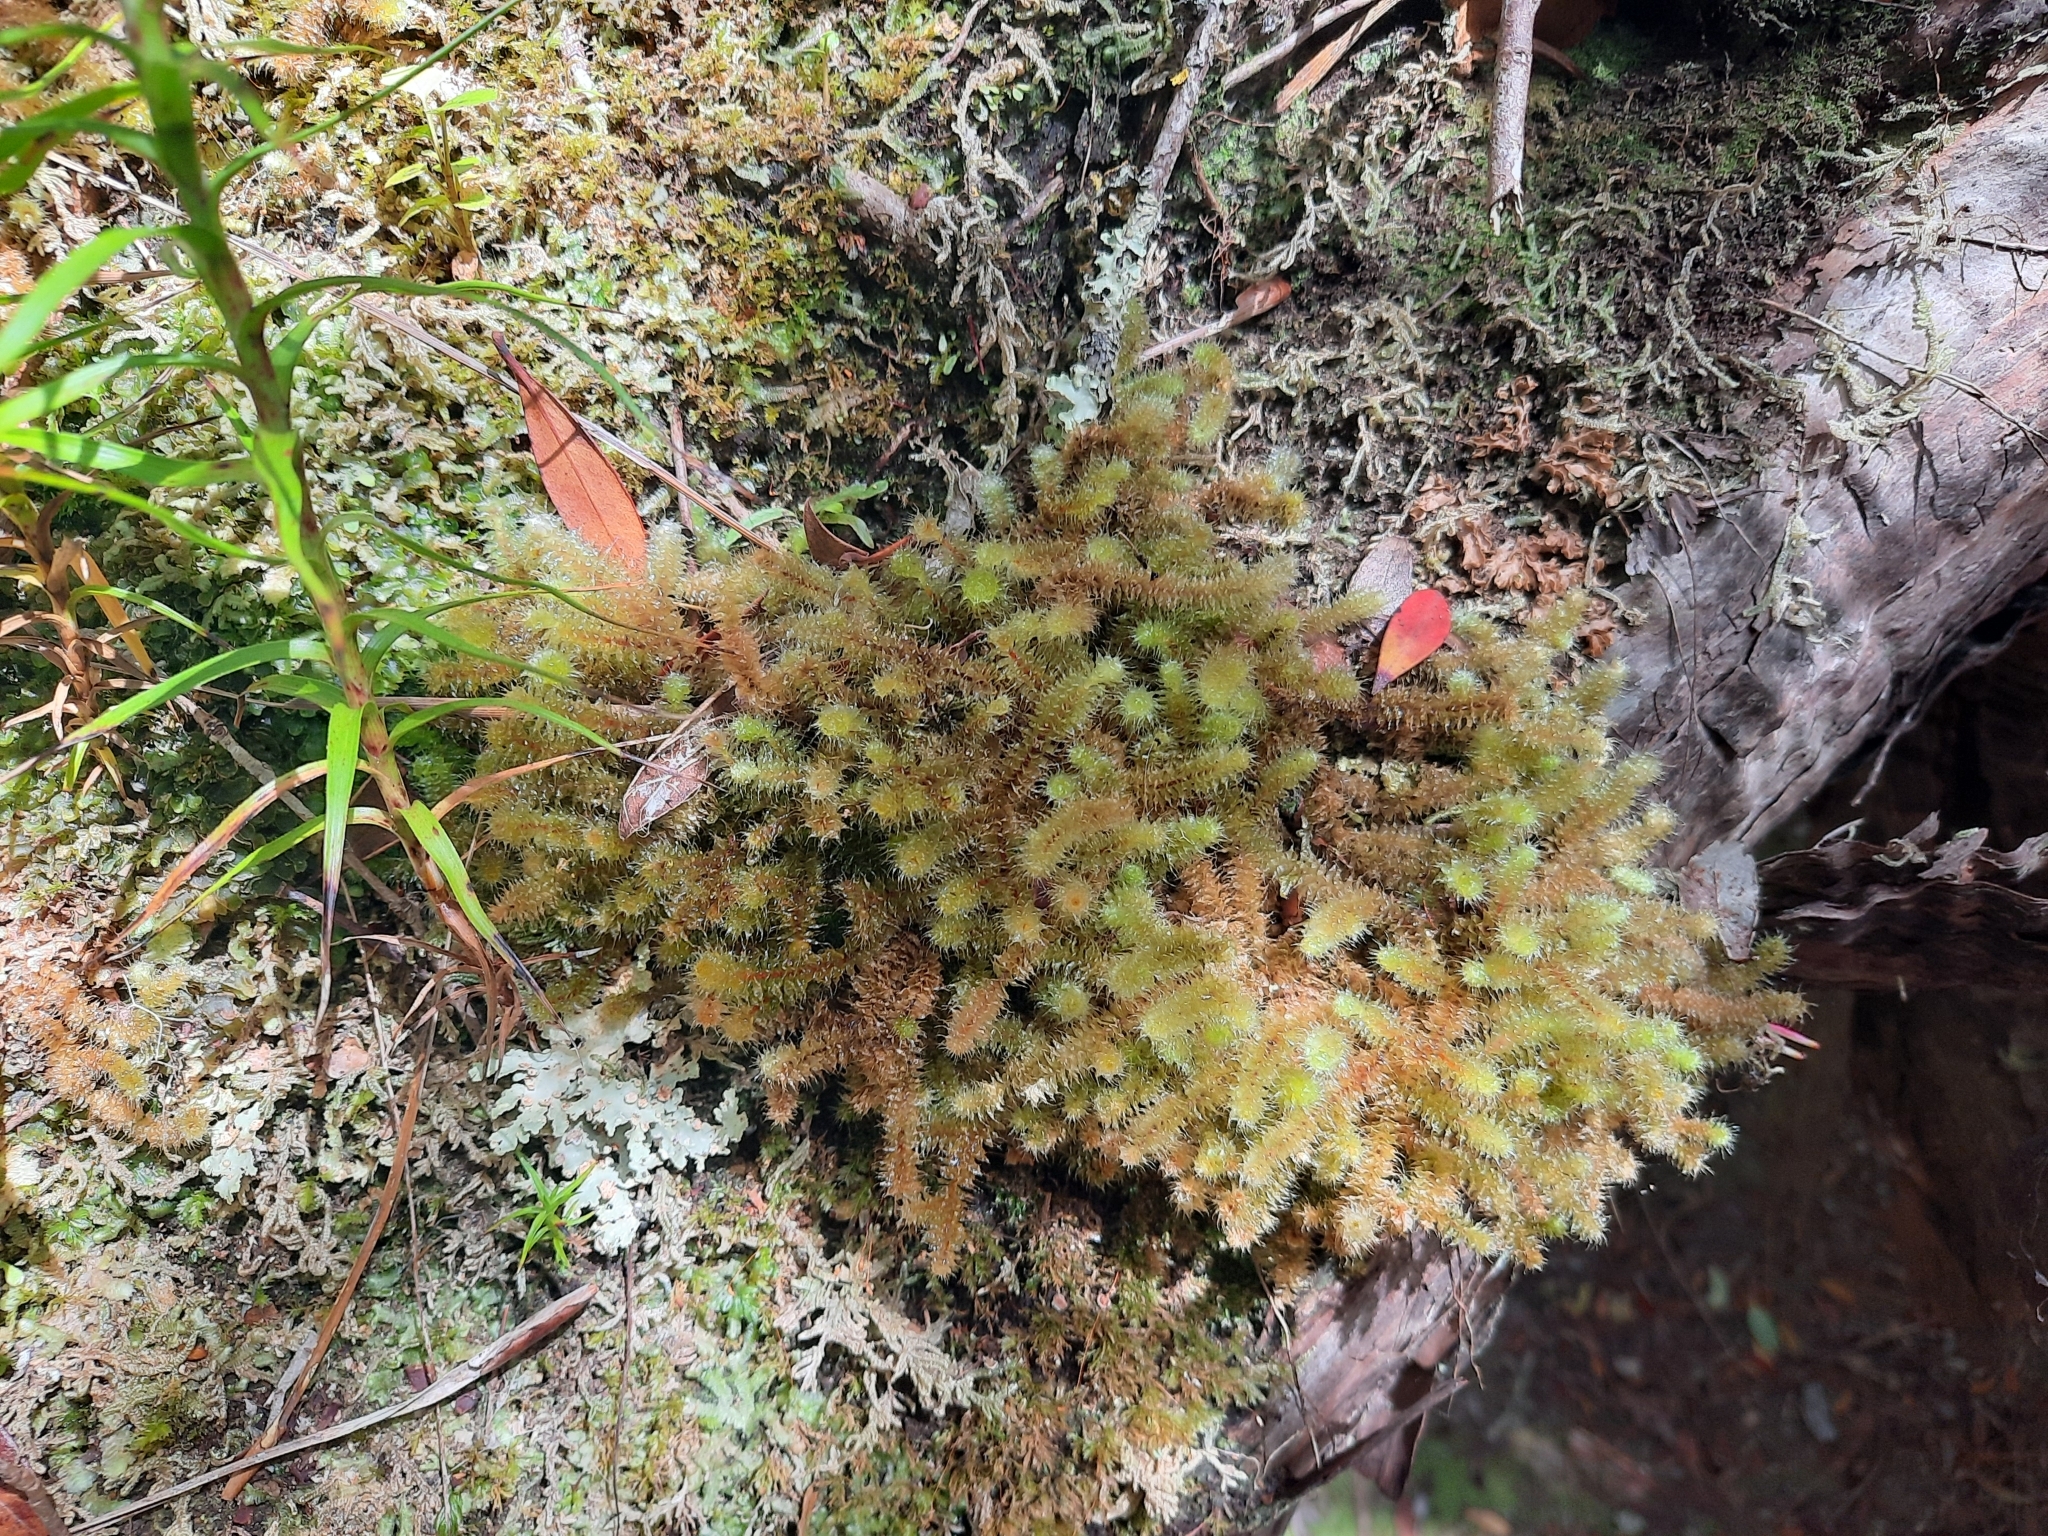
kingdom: Plantae
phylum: Bryophyta
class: Bryopsida
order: Ptychomniales
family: Ptychomniaceae
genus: Ptychomnion
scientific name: Ptychomnion aciculare
